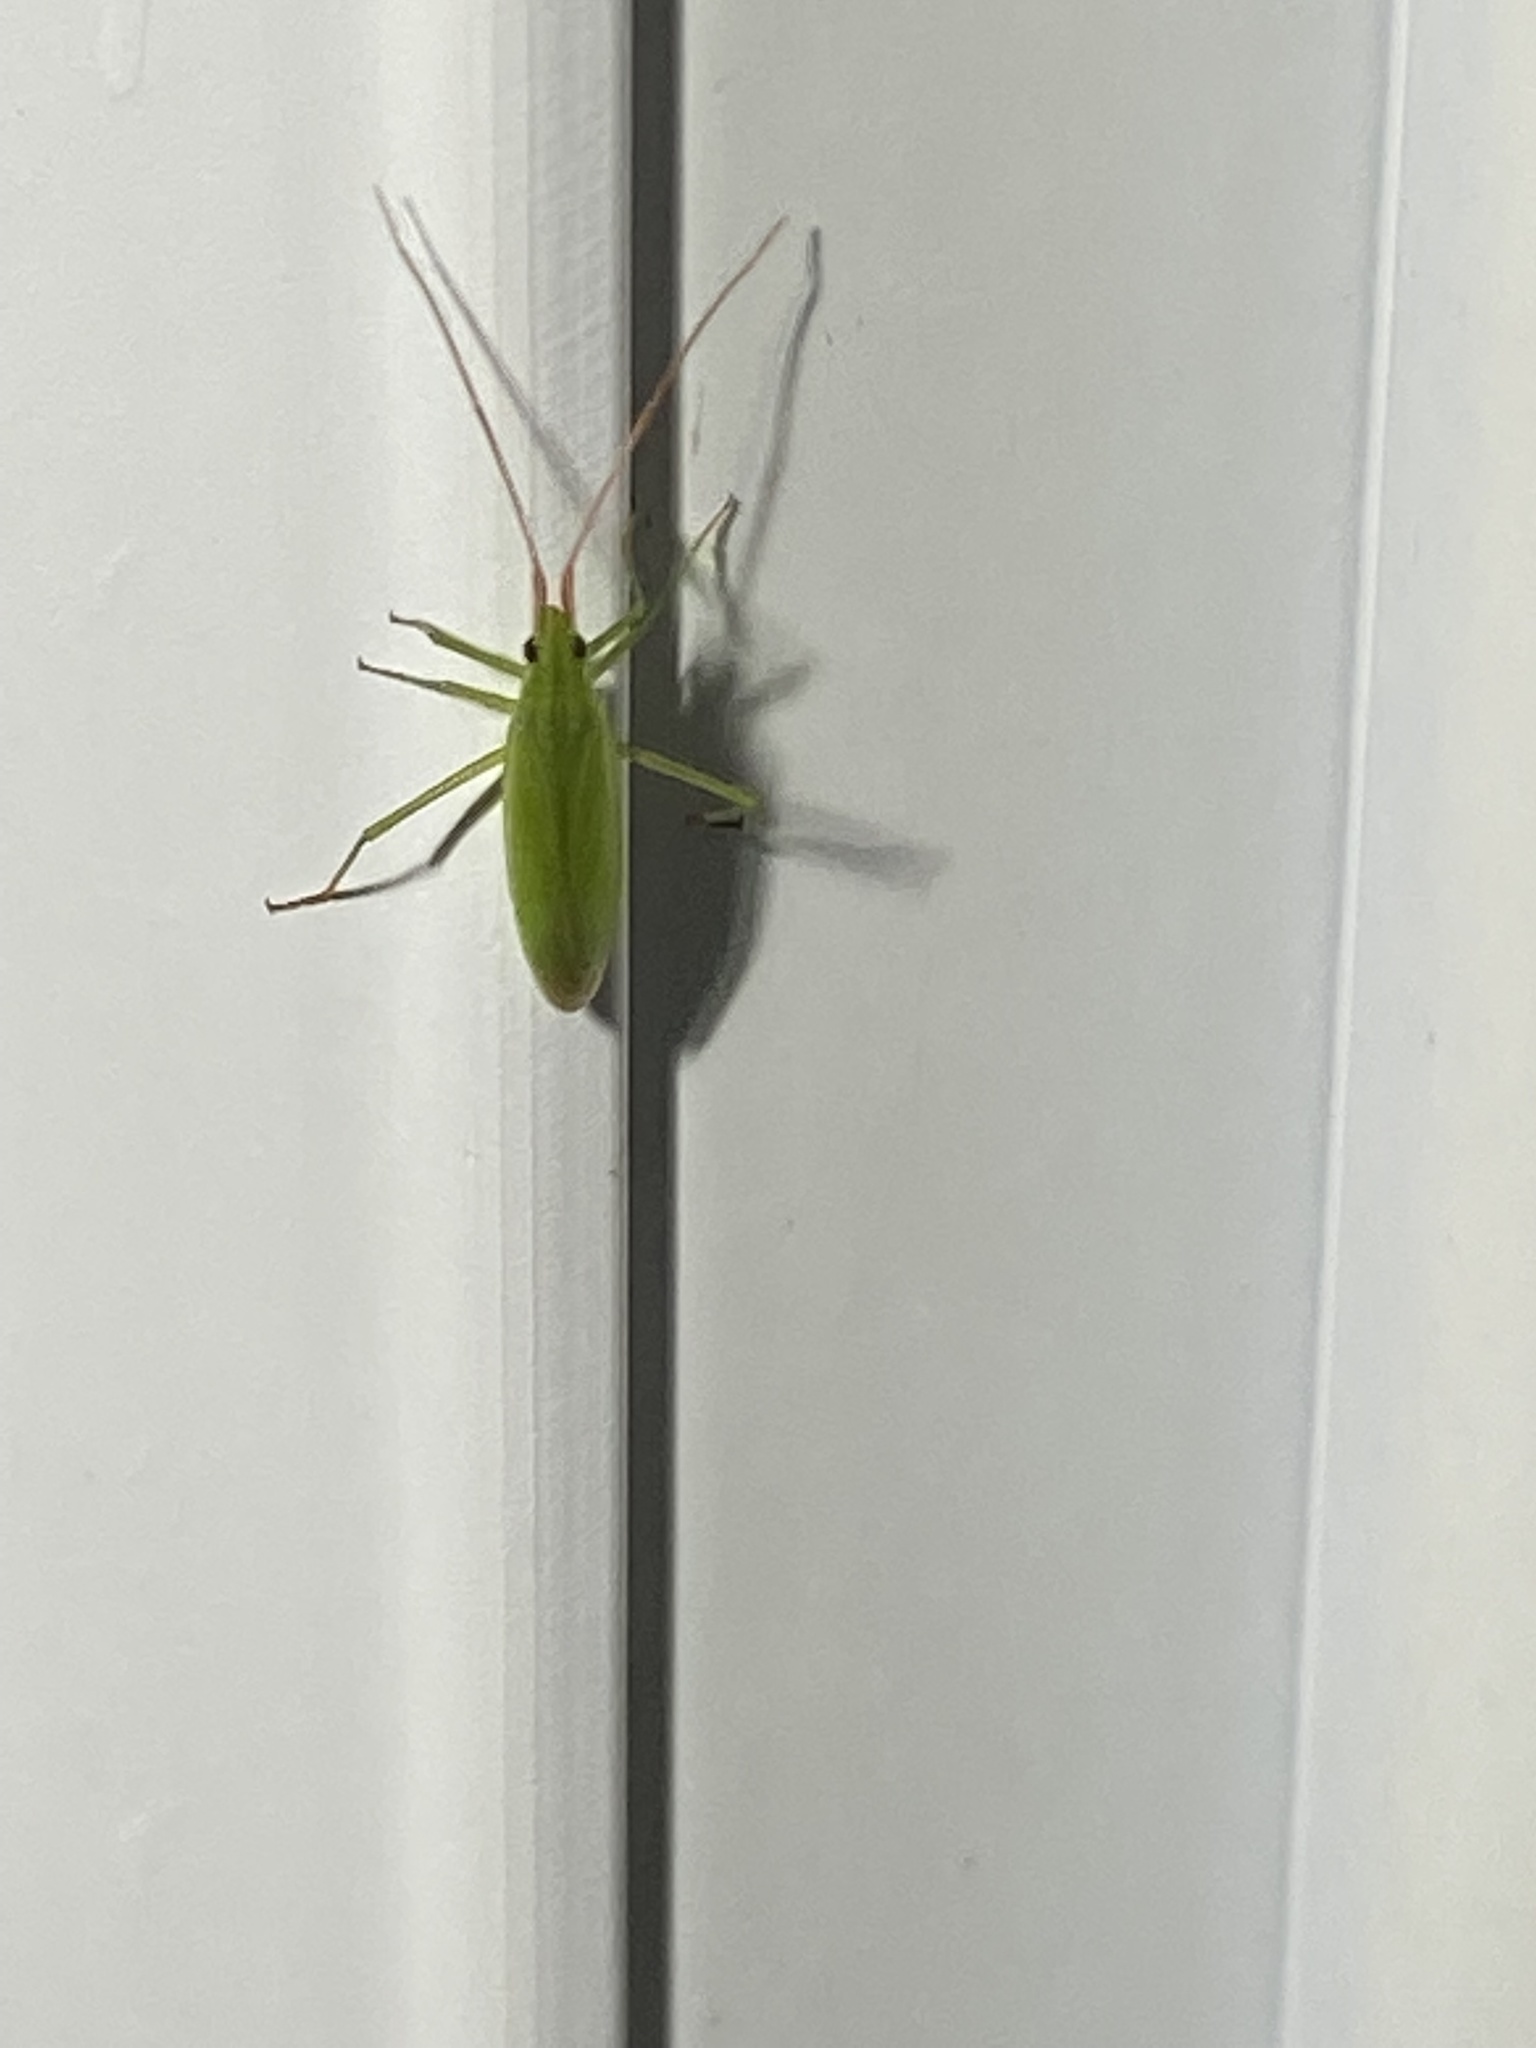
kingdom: Animalia
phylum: Arthropoda
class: Insecta
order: Hemiptera
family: Miridae
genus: Trigonotylus
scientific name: Trigonotylus caelestialium
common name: Rice leaf bug
